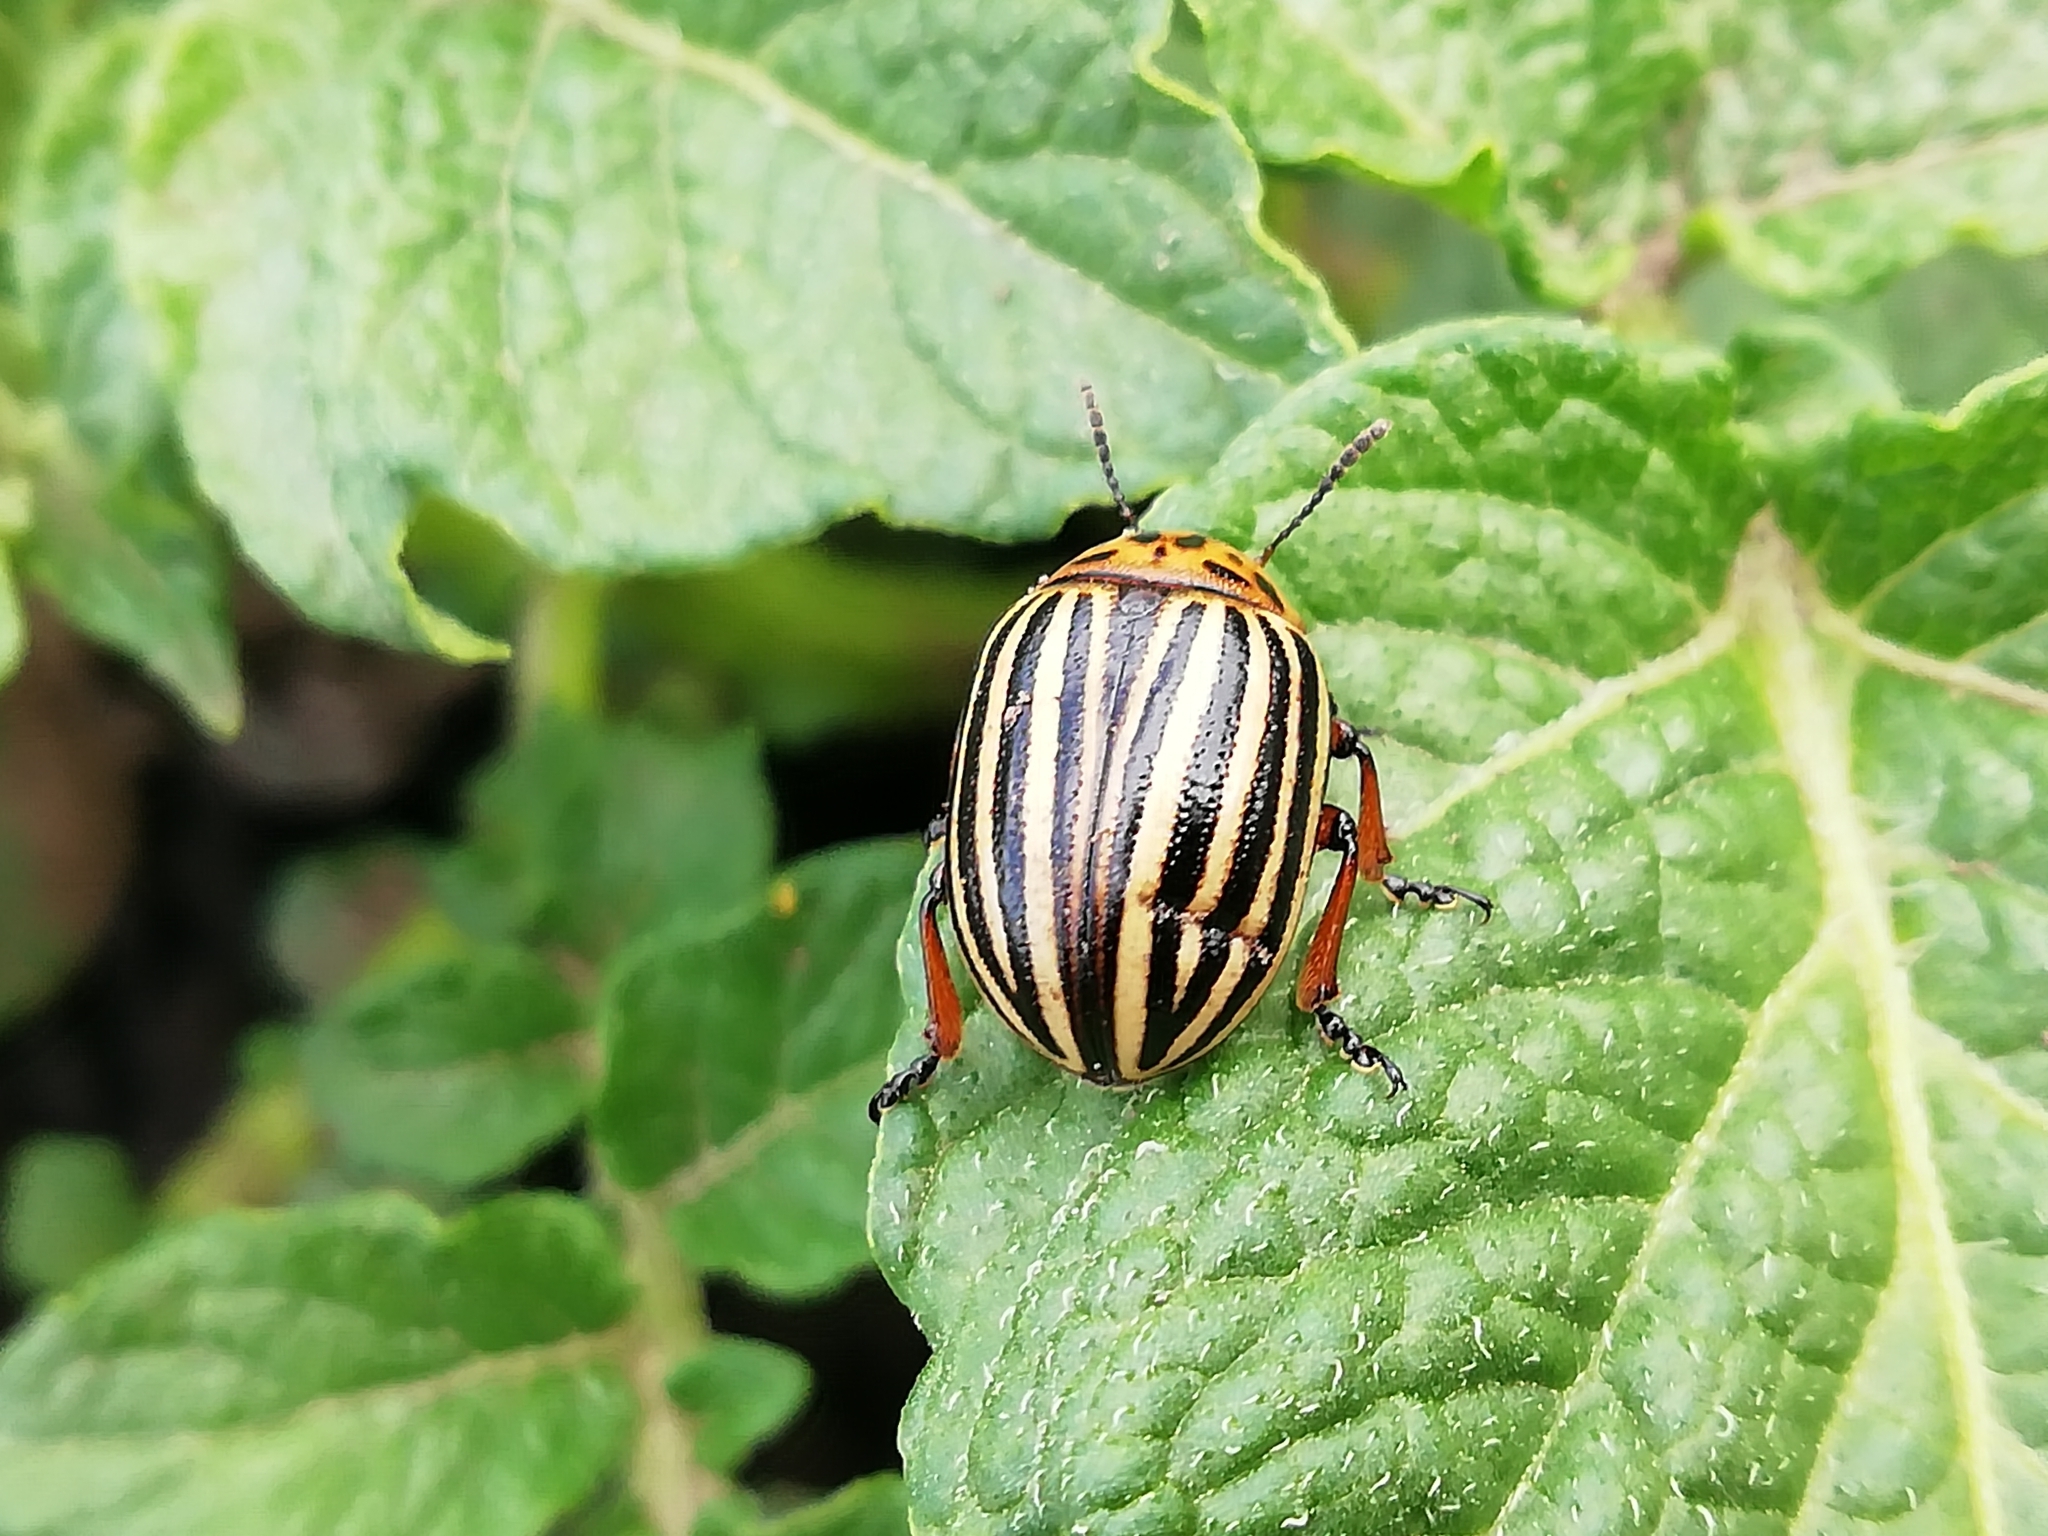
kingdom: Animalia
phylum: Arthropoda
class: Insecta
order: Coleoptera
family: Chrysomelidae
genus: Leptinotarsa
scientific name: Leptinotarsa decemlineata
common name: Colorado potato beetle
